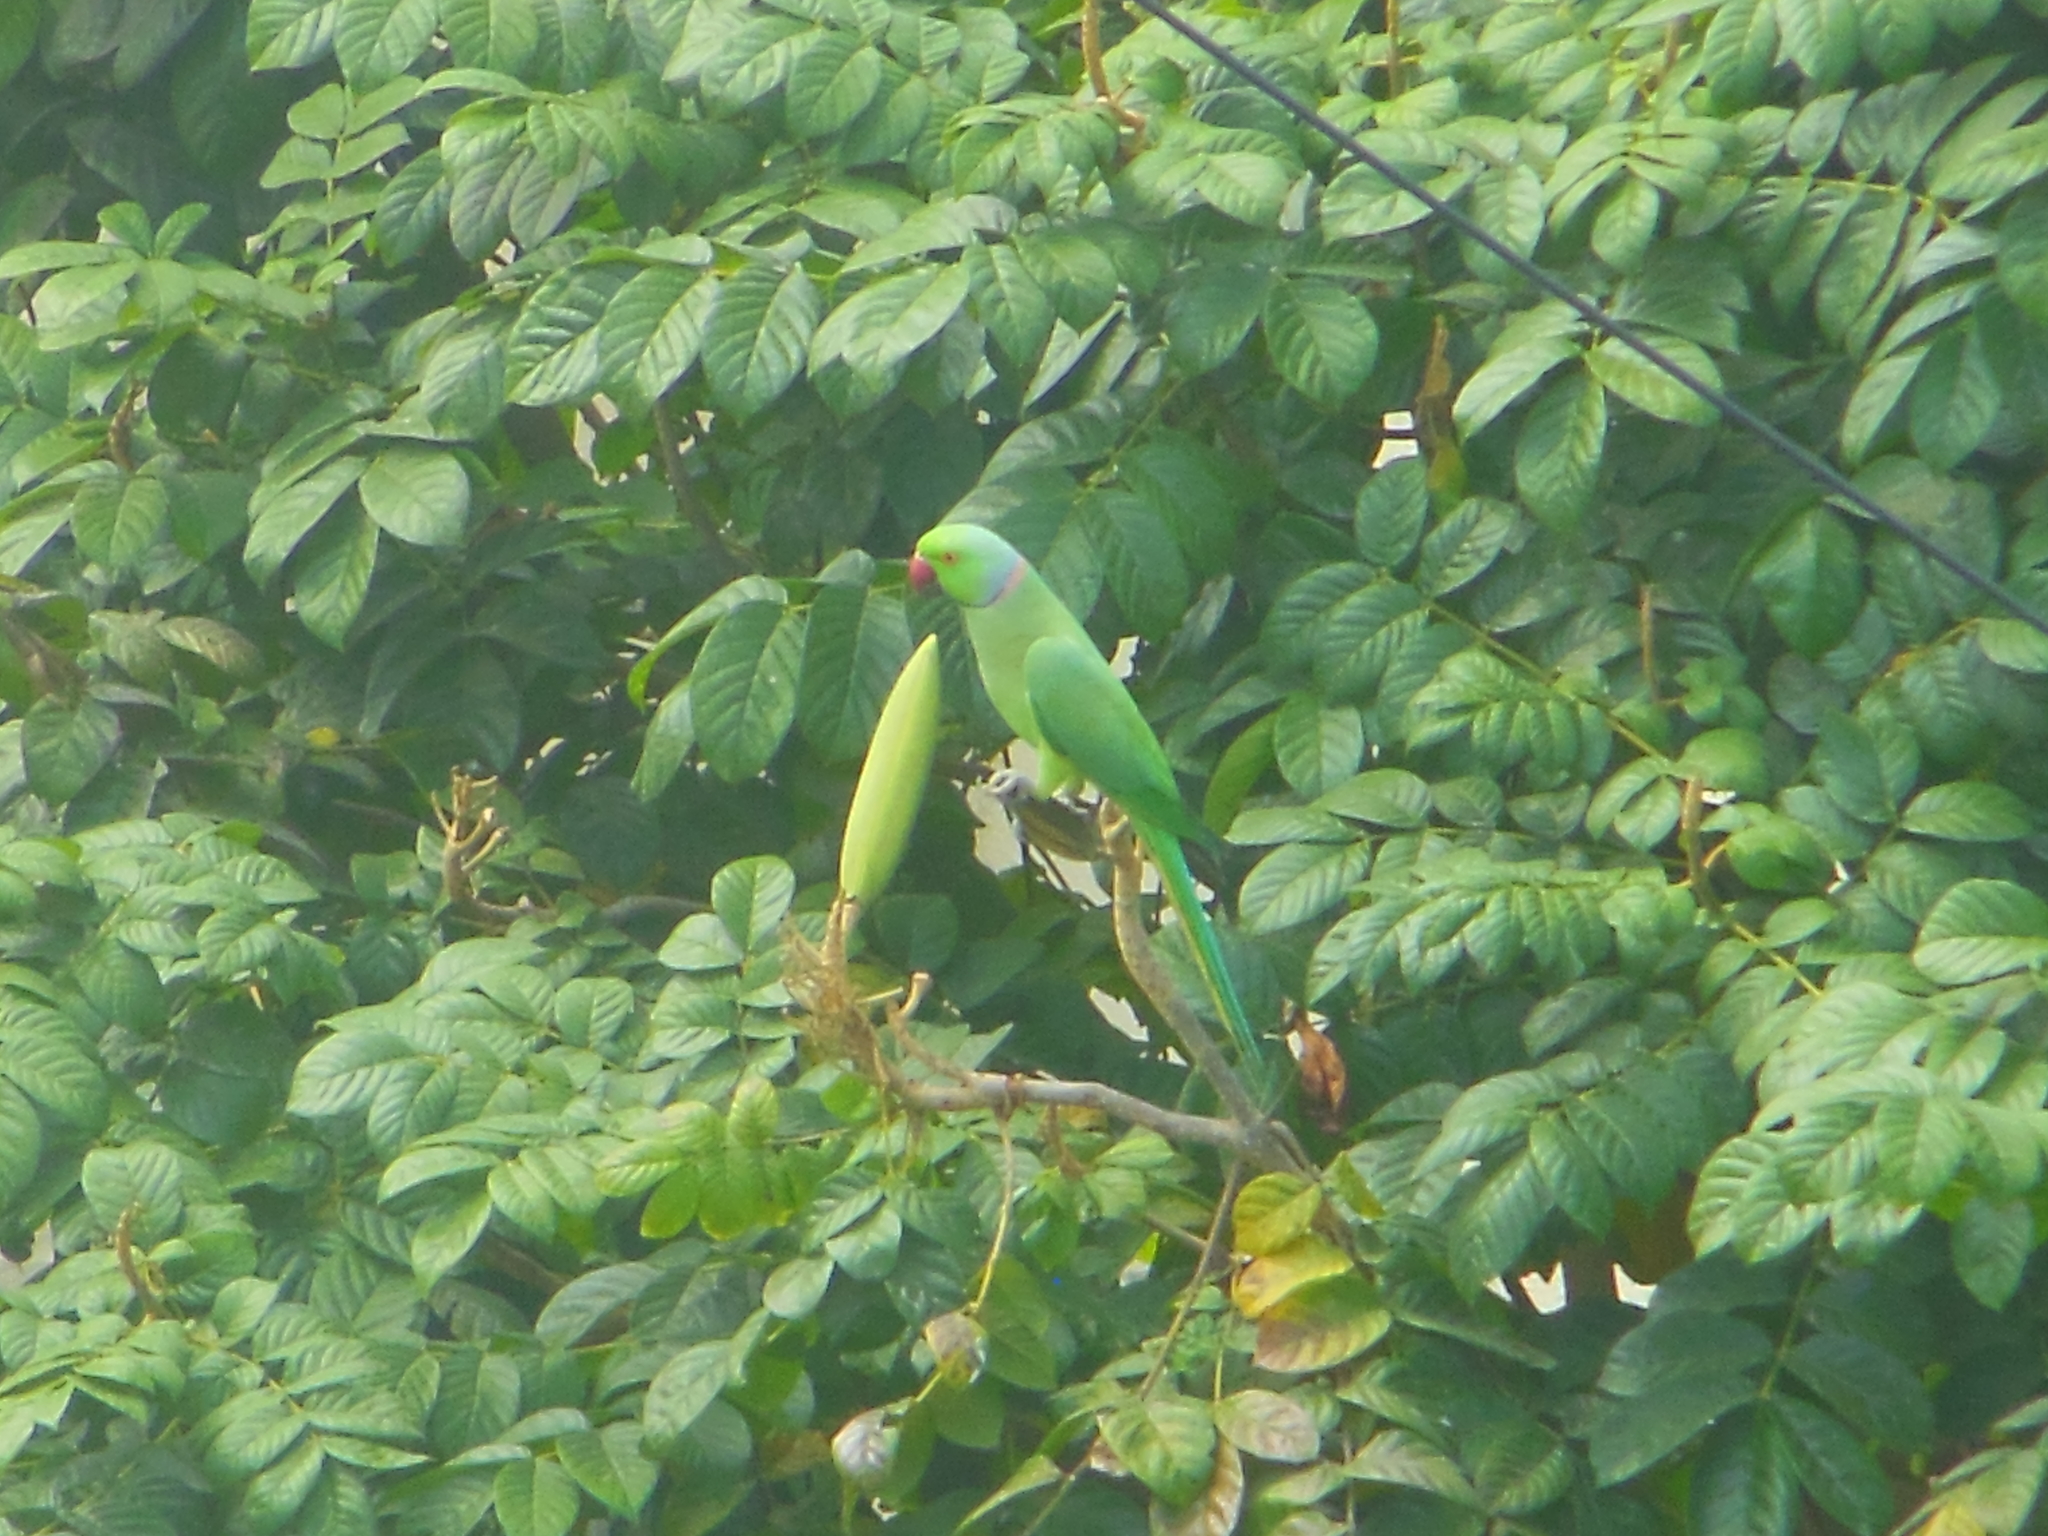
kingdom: Animalia
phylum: Chordata
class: Aves
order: Psittaciformes
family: Psittacidae
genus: Psittacula
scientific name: Psittacula krameri
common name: Rose-ringed parakeet
